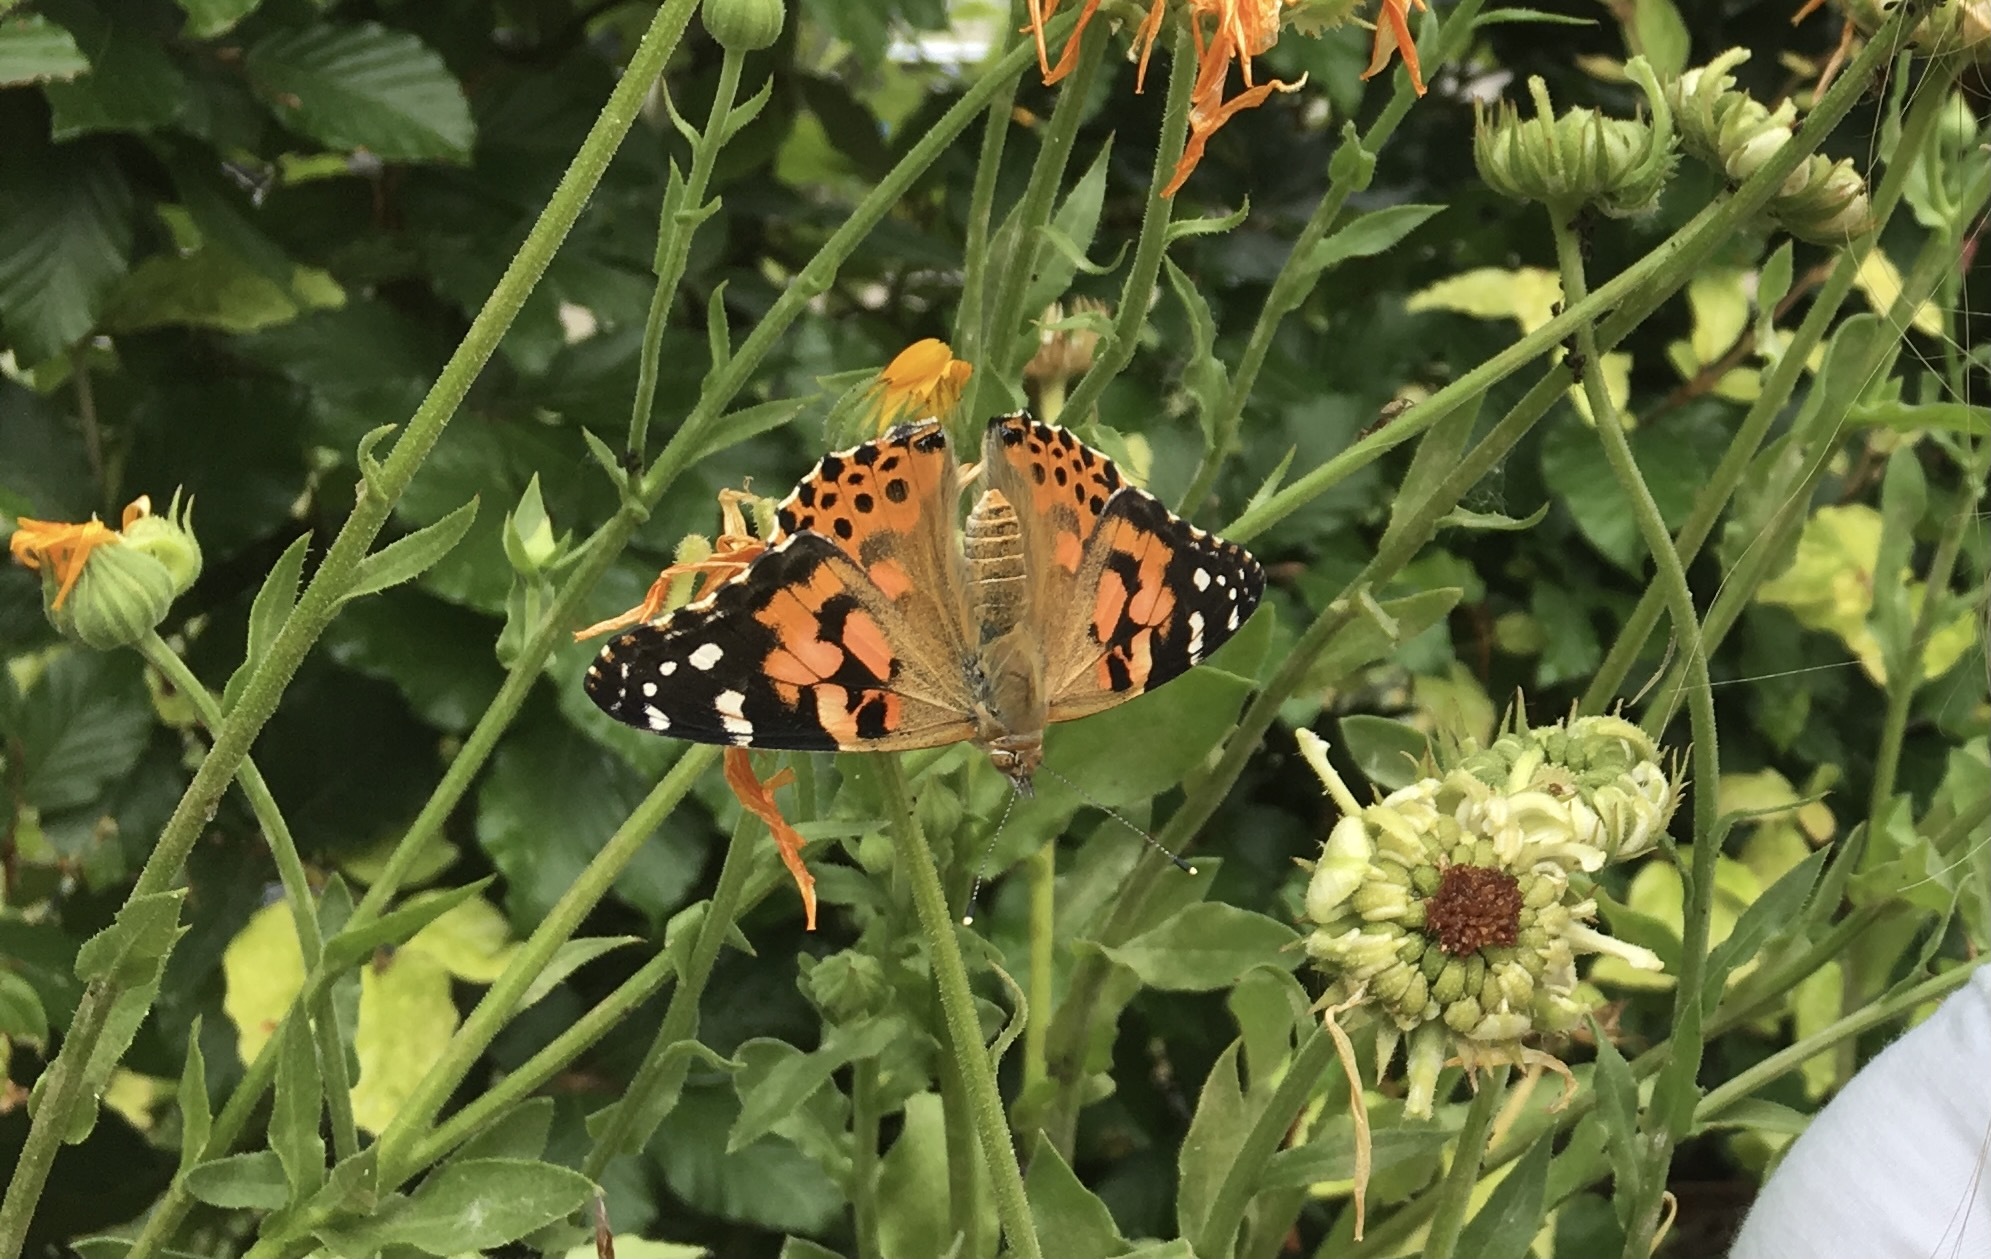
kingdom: Animalia
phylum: Arthropoda
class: Insecta
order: Lepidoptera
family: Nymphalidae
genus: Vanessa
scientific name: Vanessa cardui
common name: Painted lady
